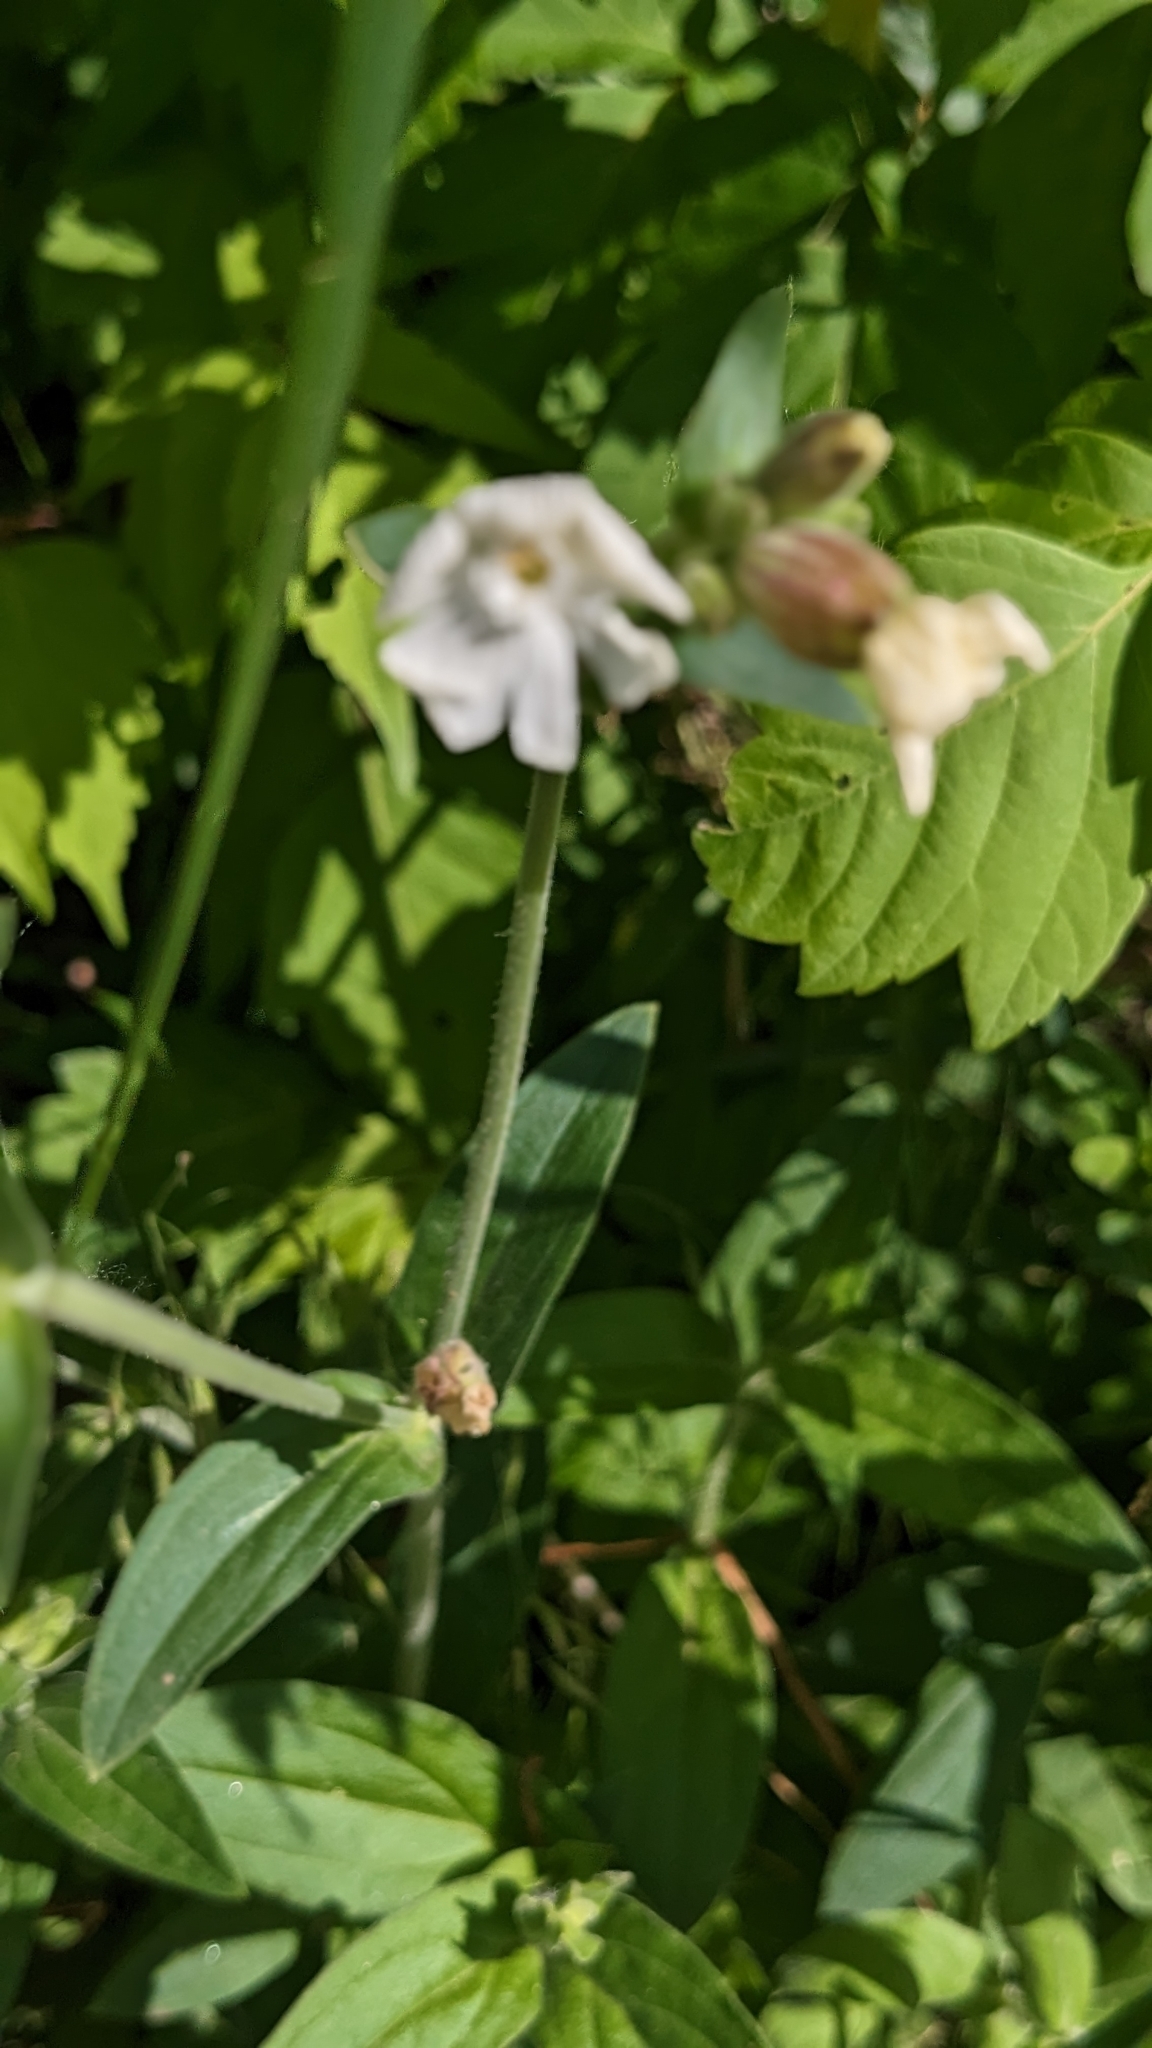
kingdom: Plantae
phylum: Tracheophyta
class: Magnoliopsida
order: Caryophyllales
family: Caryophyllaceae
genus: Silene
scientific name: Silene latifolia
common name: White campion
